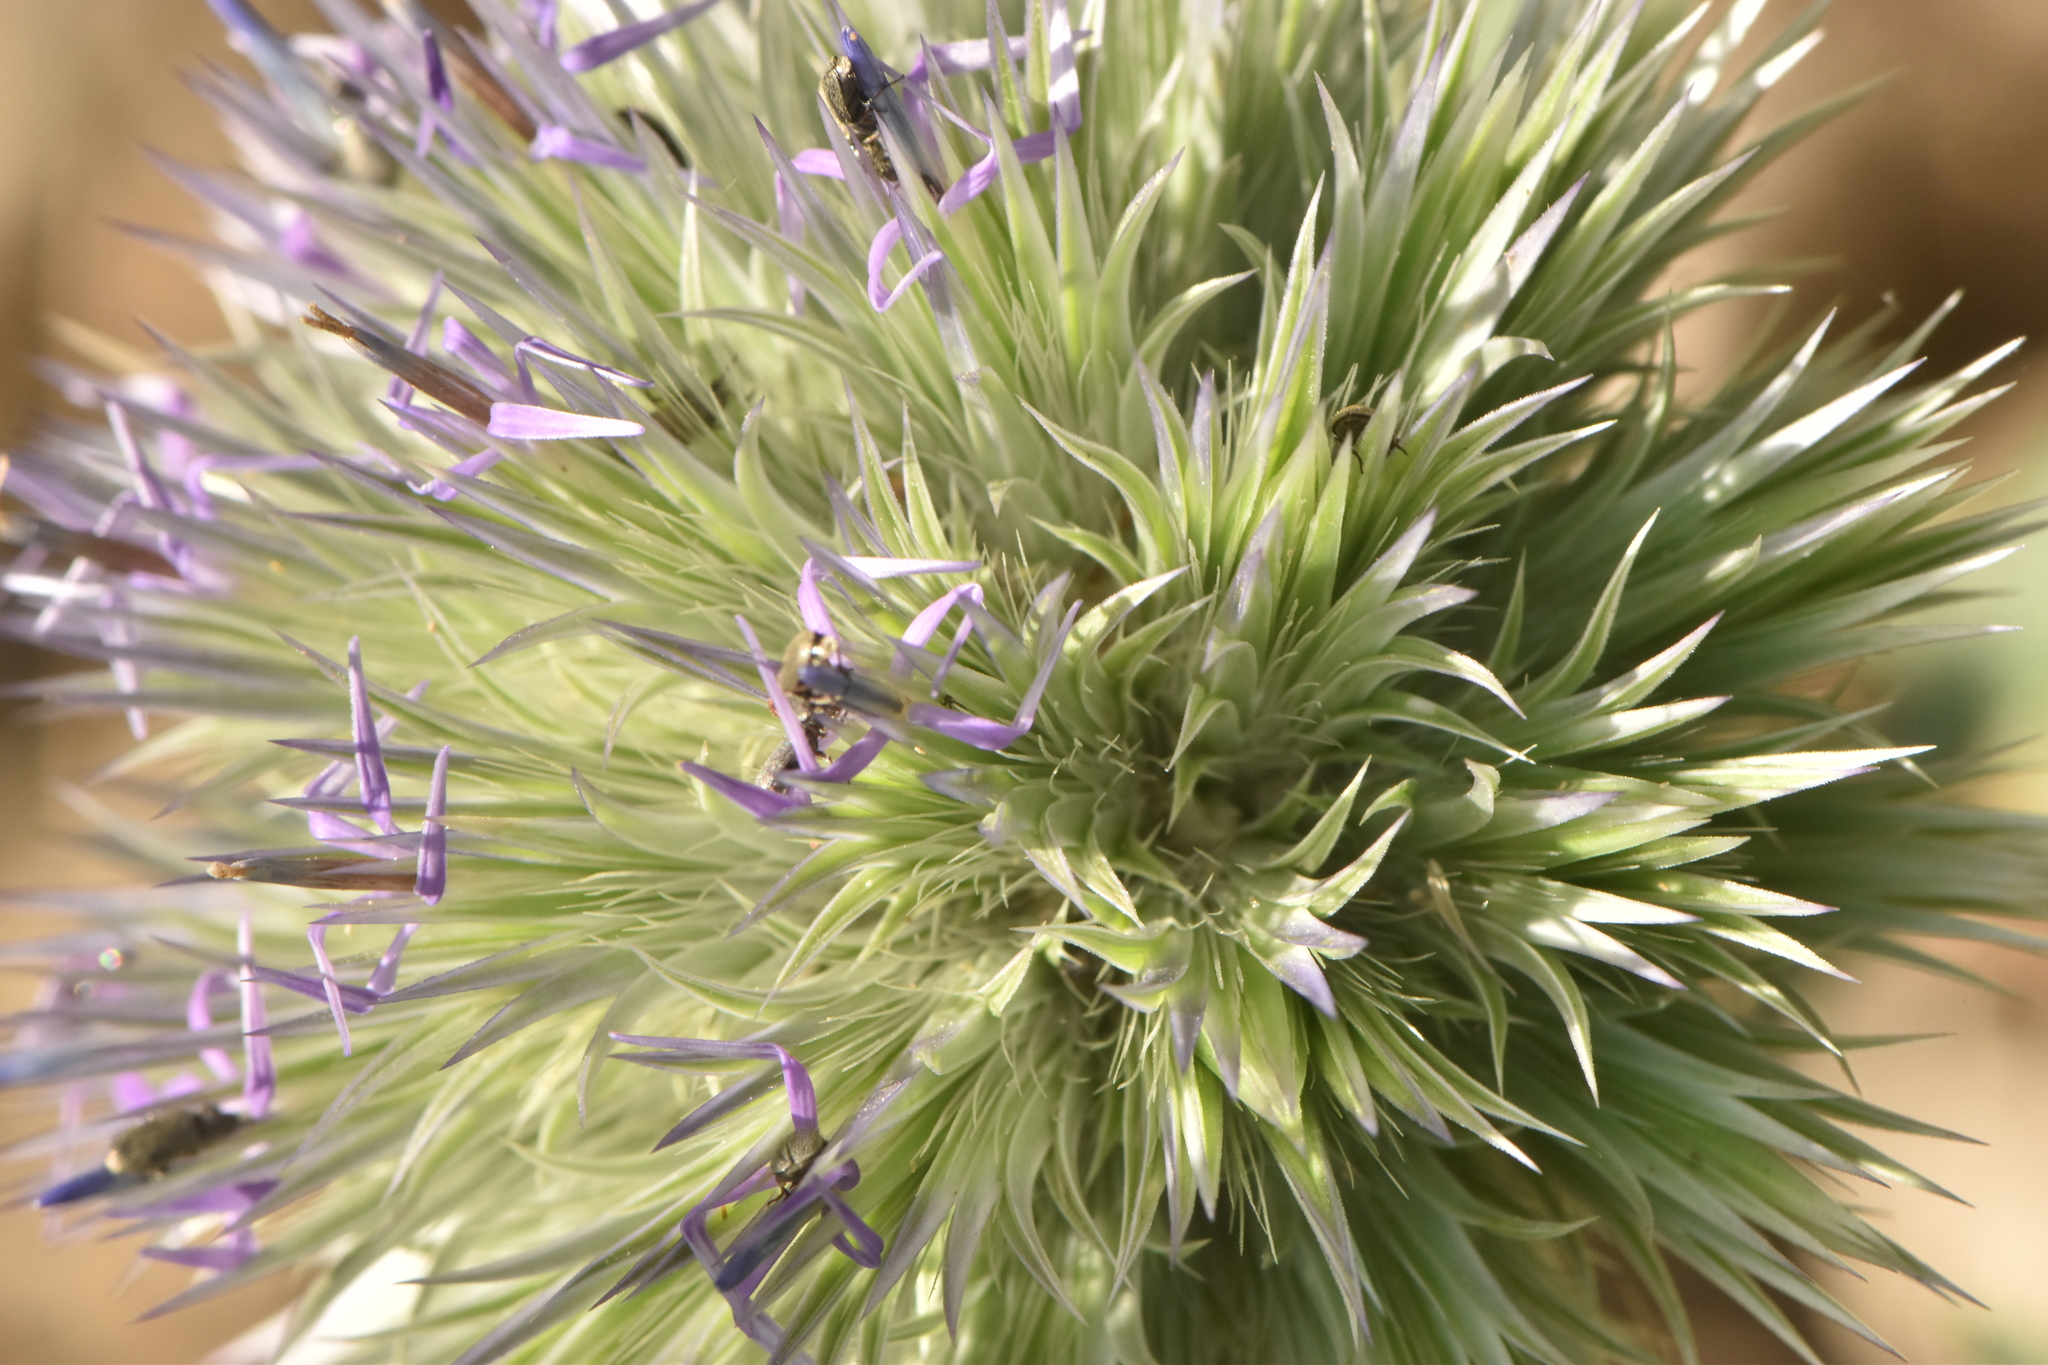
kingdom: Plantae
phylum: Tracheophyta
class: Magnoliopsida
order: Asterales
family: Asteraceae
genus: Echinops
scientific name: Echinops strigosus
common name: Rough-leaf globe thistle
